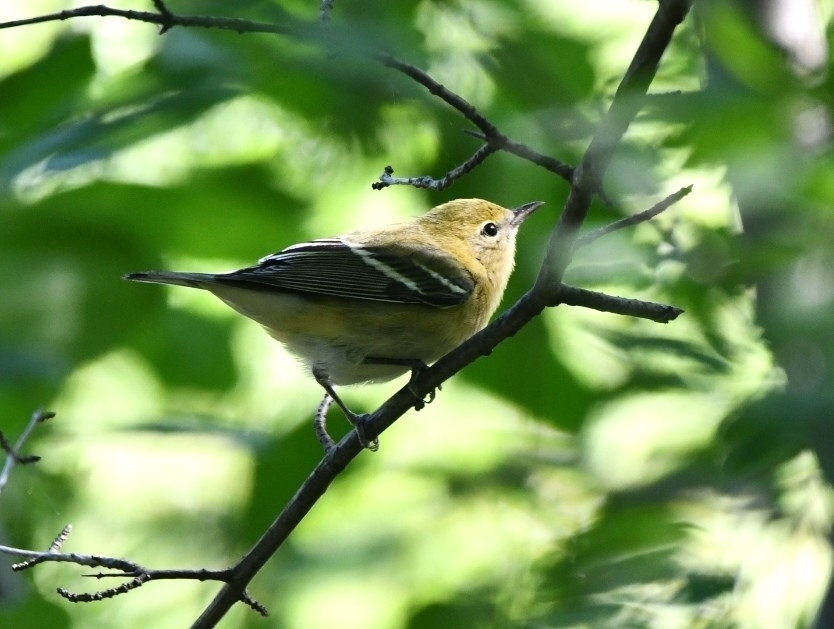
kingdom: Animalia
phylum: Chordata
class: Aves
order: Passeriformes
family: Parulidae
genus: Setophaga
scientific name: Setophaga castanea
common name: Bay-breasted warbler
